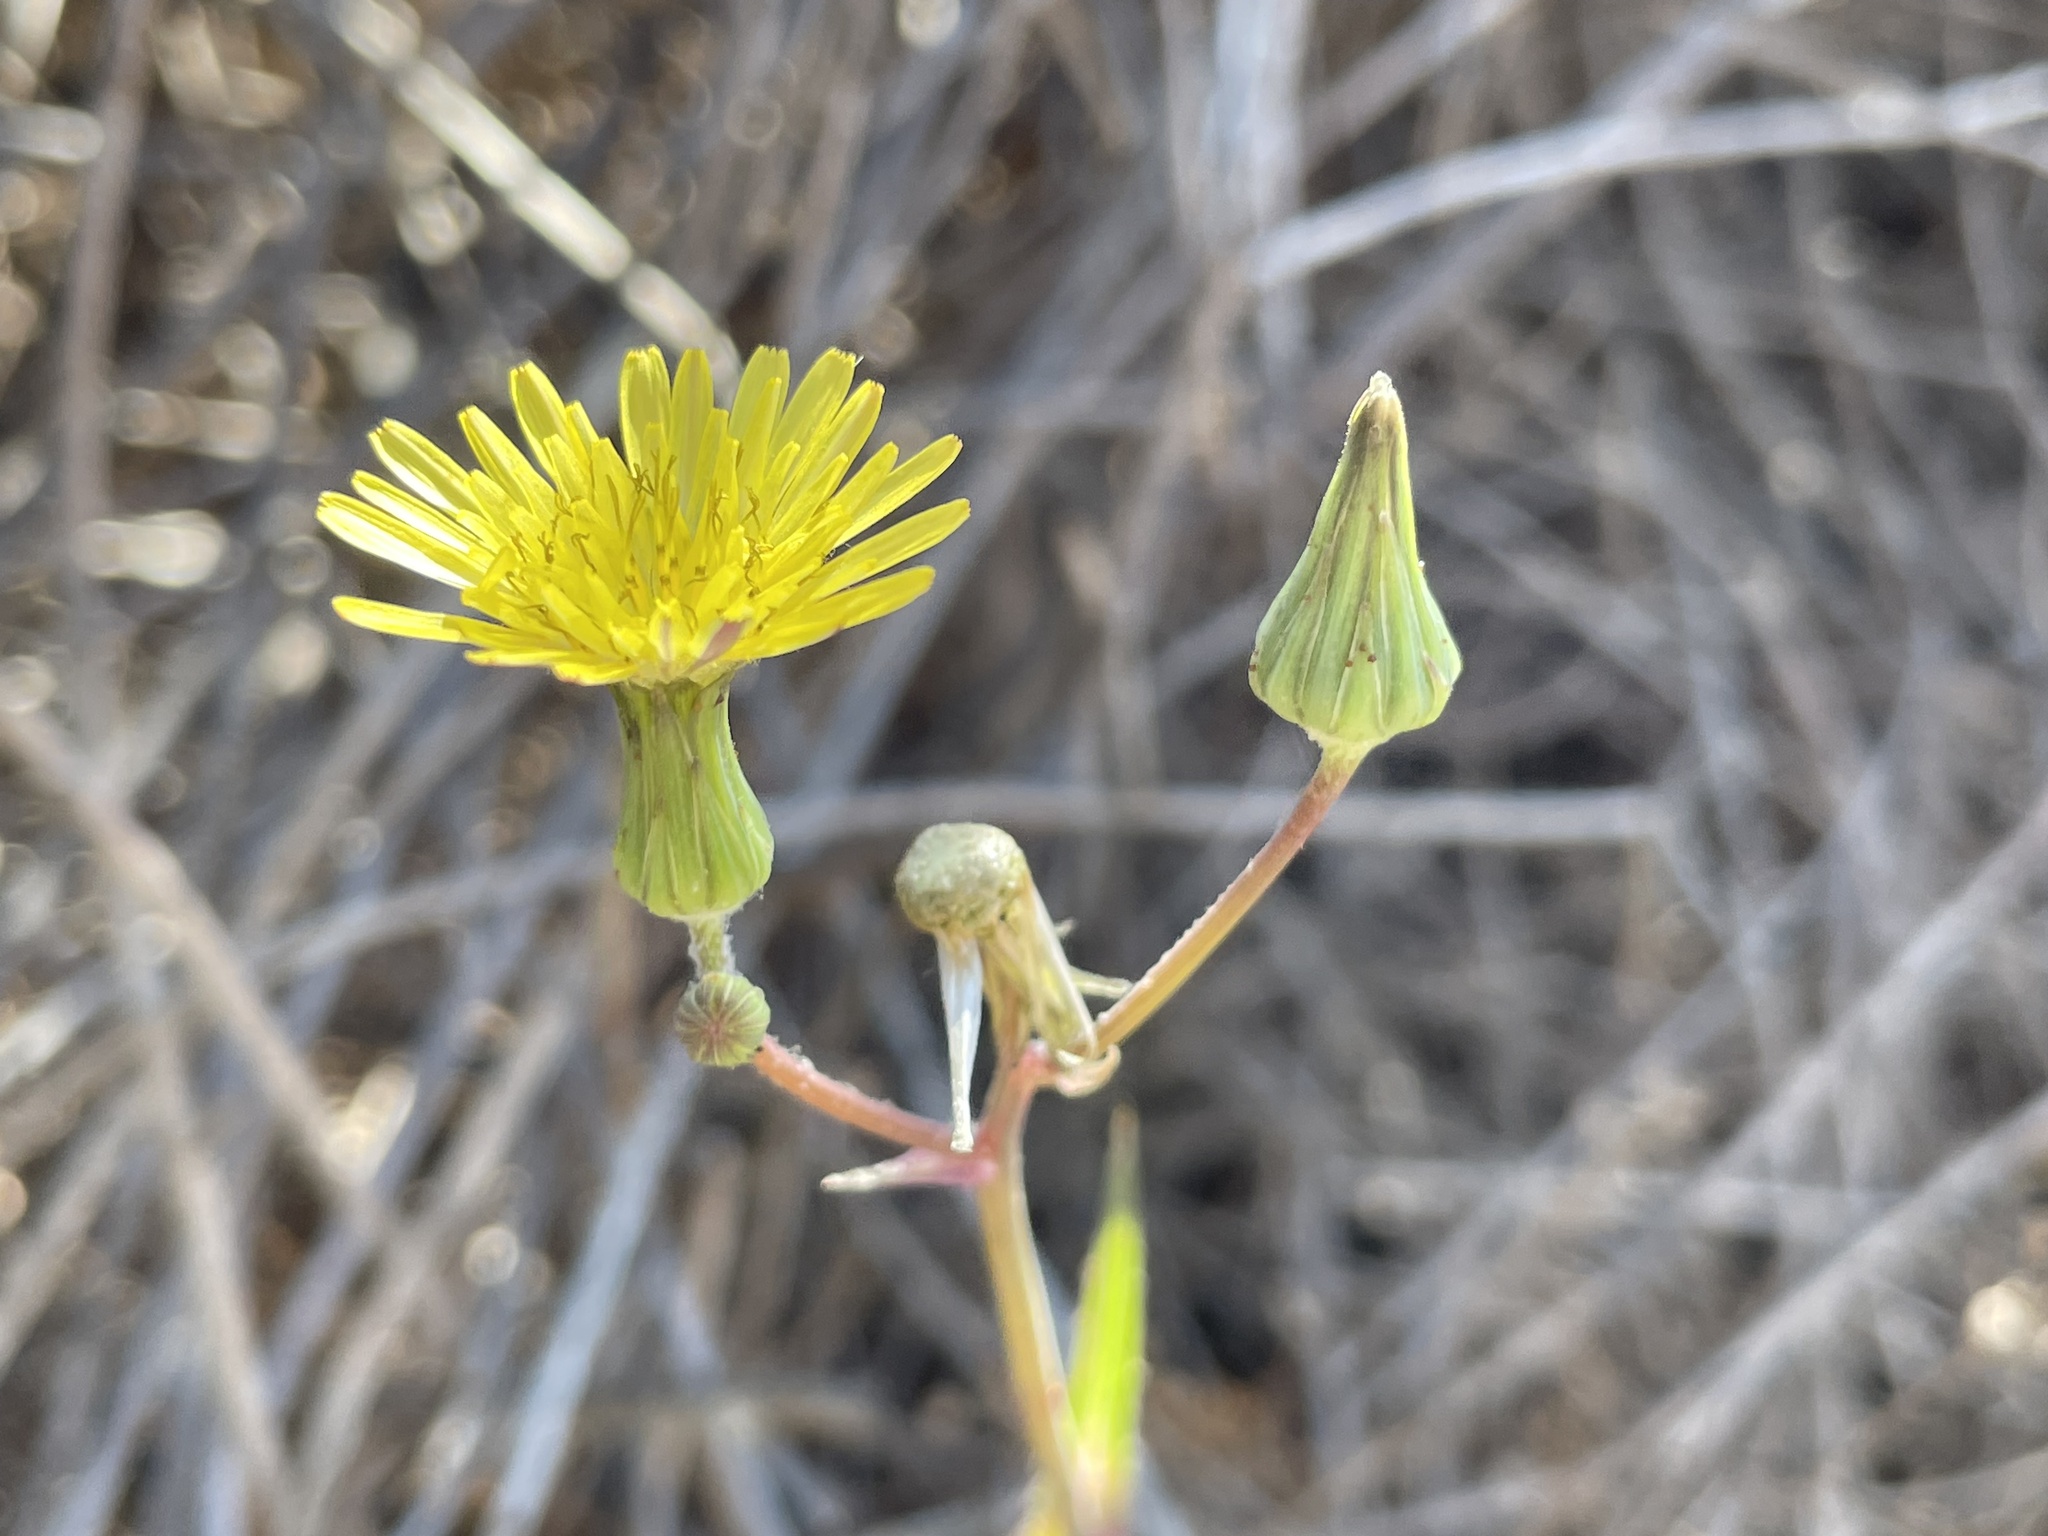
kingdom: Plantae
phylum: Tracheophyta
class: Magnoliopsida
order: Asterales
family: Asteraceae
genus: Sonchus
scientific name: Sonchus oleraceus
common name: Common sowthistle
